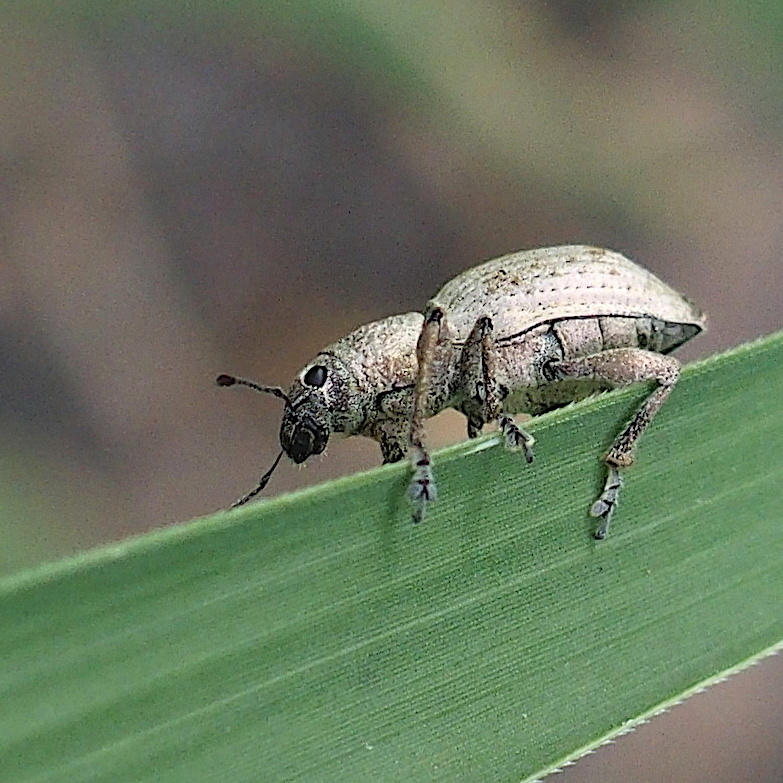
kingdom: Animalia
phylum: Arthropoda
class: Insecta
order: Coleoptera
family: Curculionidae
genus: Sympiezomias
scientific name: Sympiezomias cribricollis
